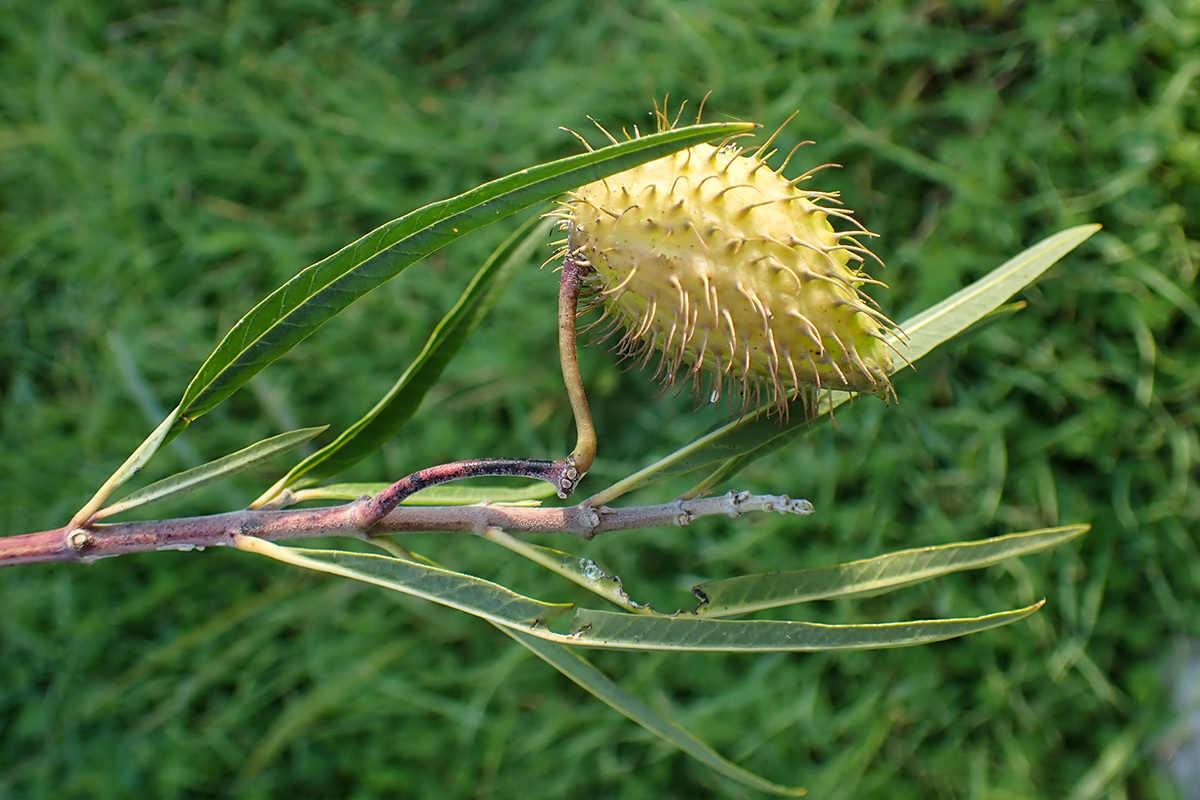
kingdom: Plantae
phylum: Tracheophyta
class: Magnoliopsida
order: Gentianales
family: Apocynaceae
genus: Gomphocarpus
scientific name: Gomphocarpus fruticosus
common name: Milkweed
